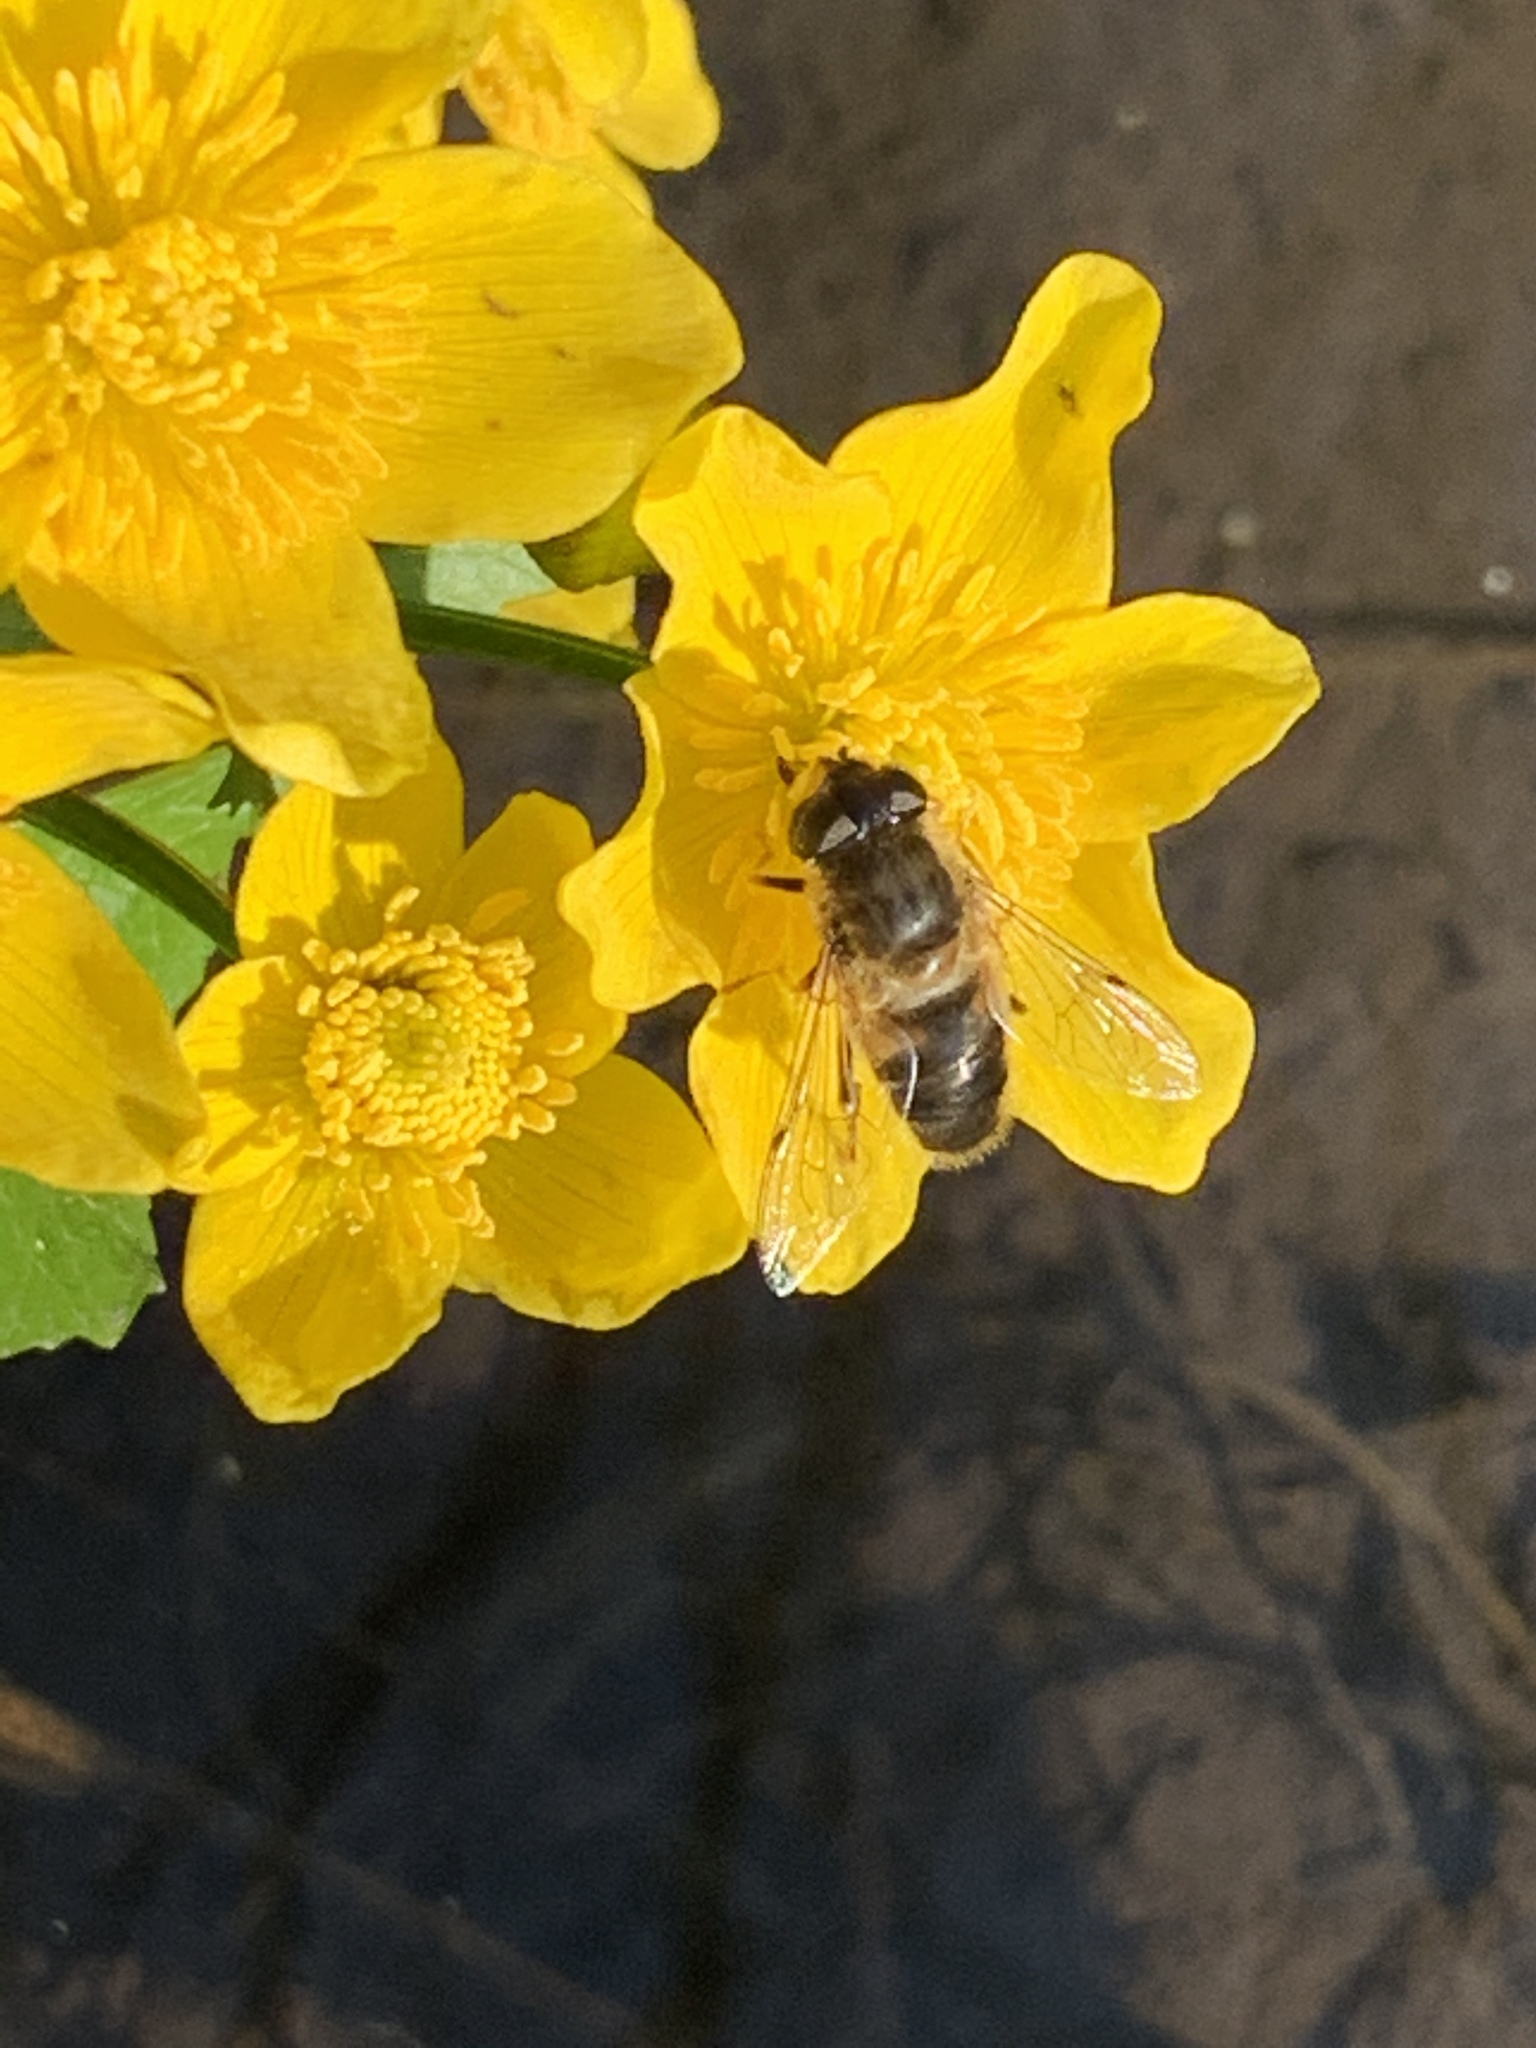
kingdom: Animalia
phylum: Arthropoda
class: Insecta
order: Diptera
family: Syrphidae
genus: Eristalis
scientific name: Eristalis pertinax
